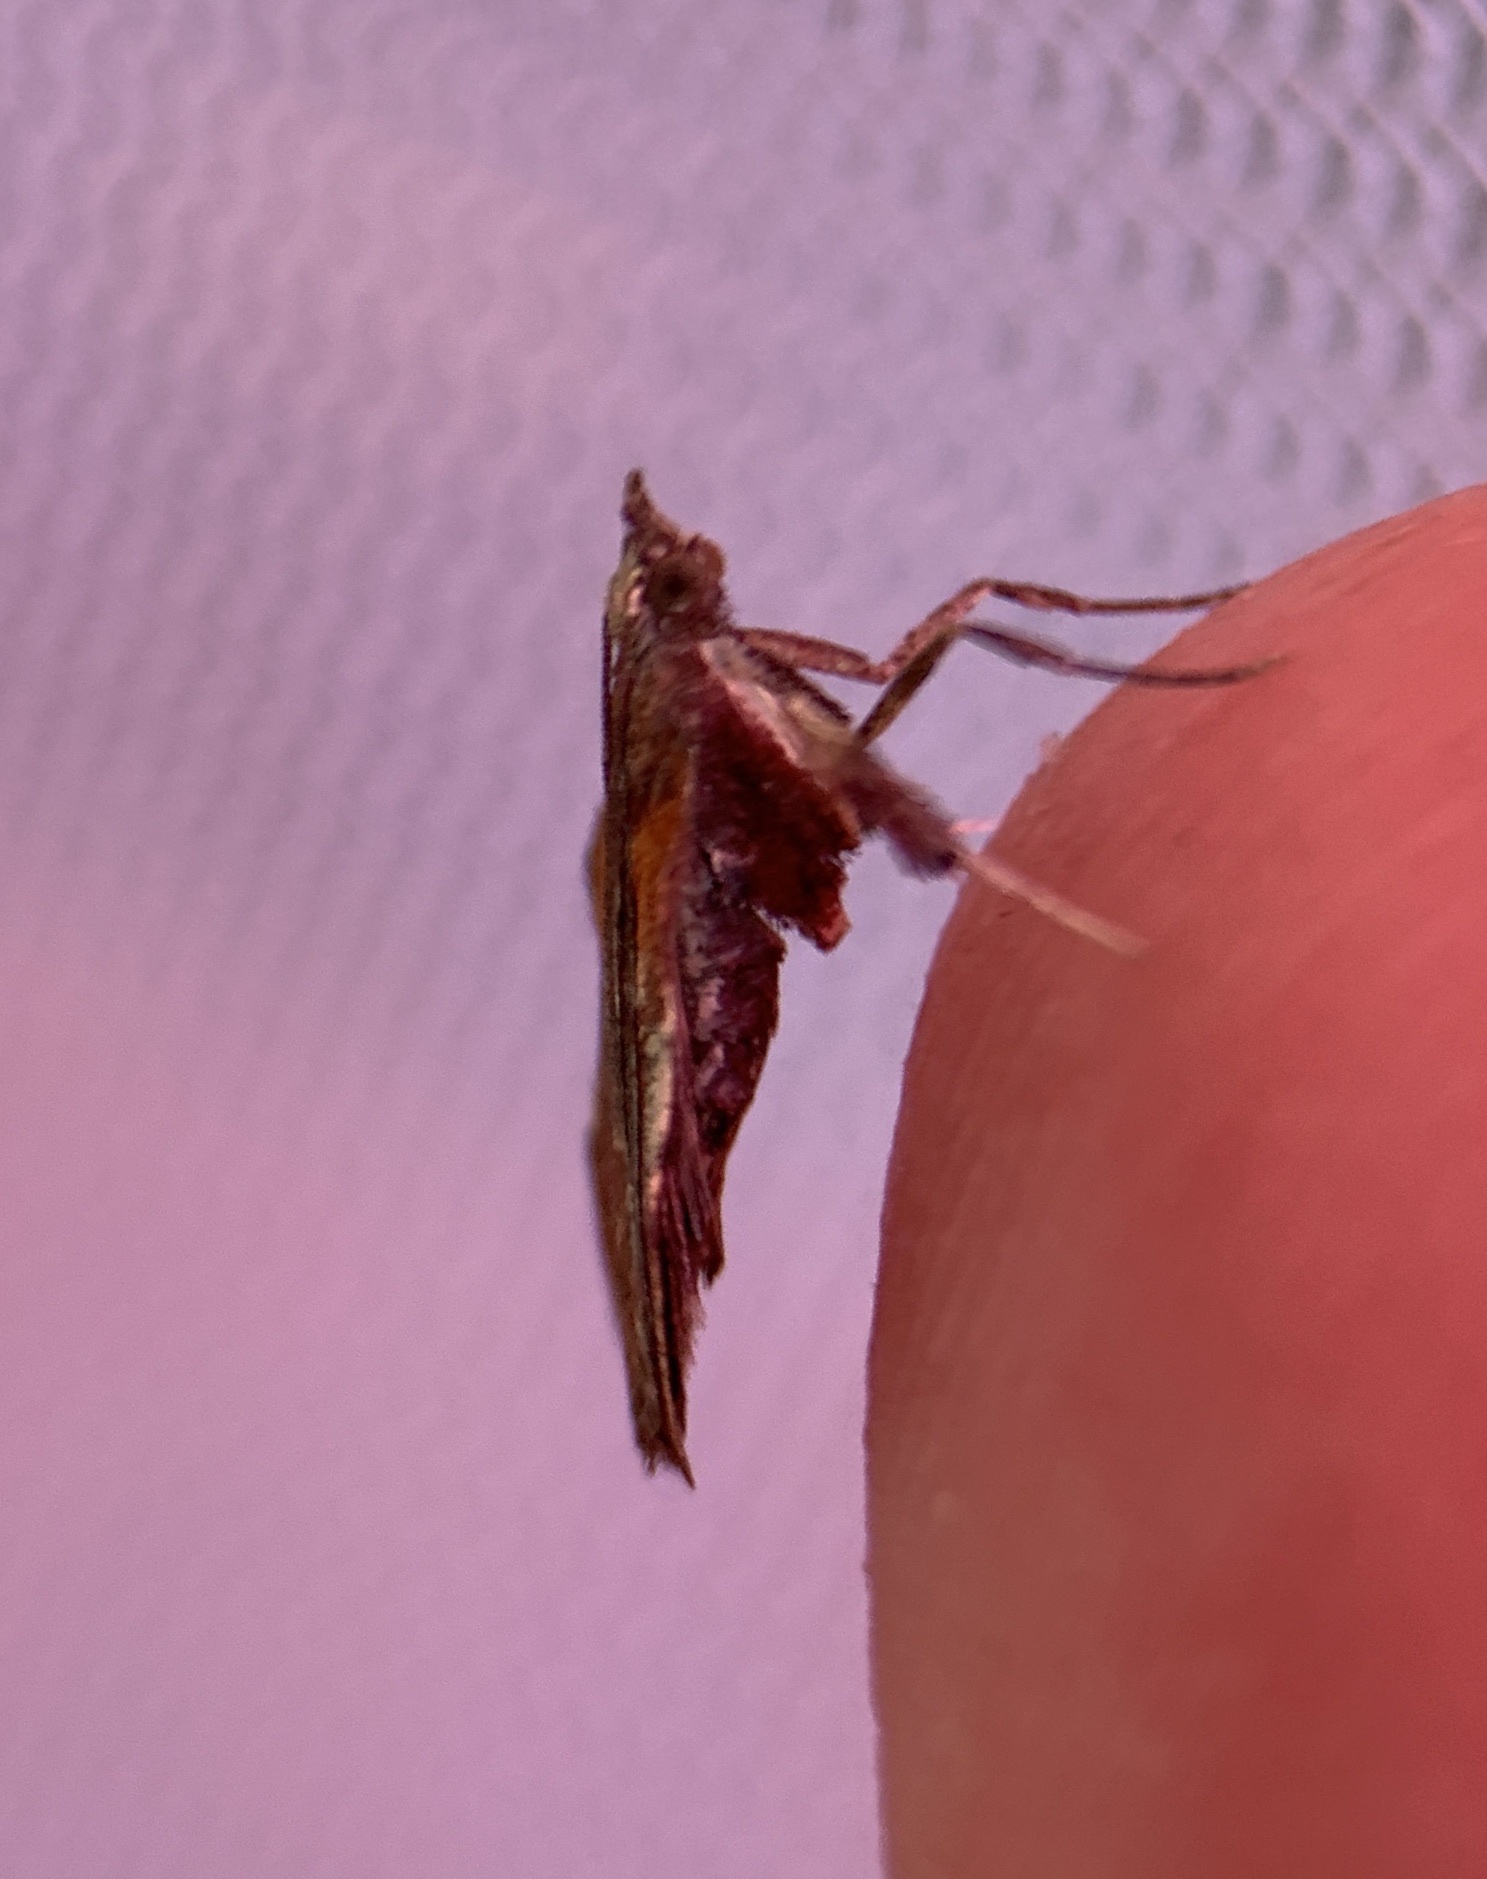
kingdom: Animalia
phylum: Arthropoda
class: Insecta
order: Lepidoptera
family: Pyralidae
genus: Galasa
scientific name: Galasa nigrinodis
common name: Boxwood leaftier moth
